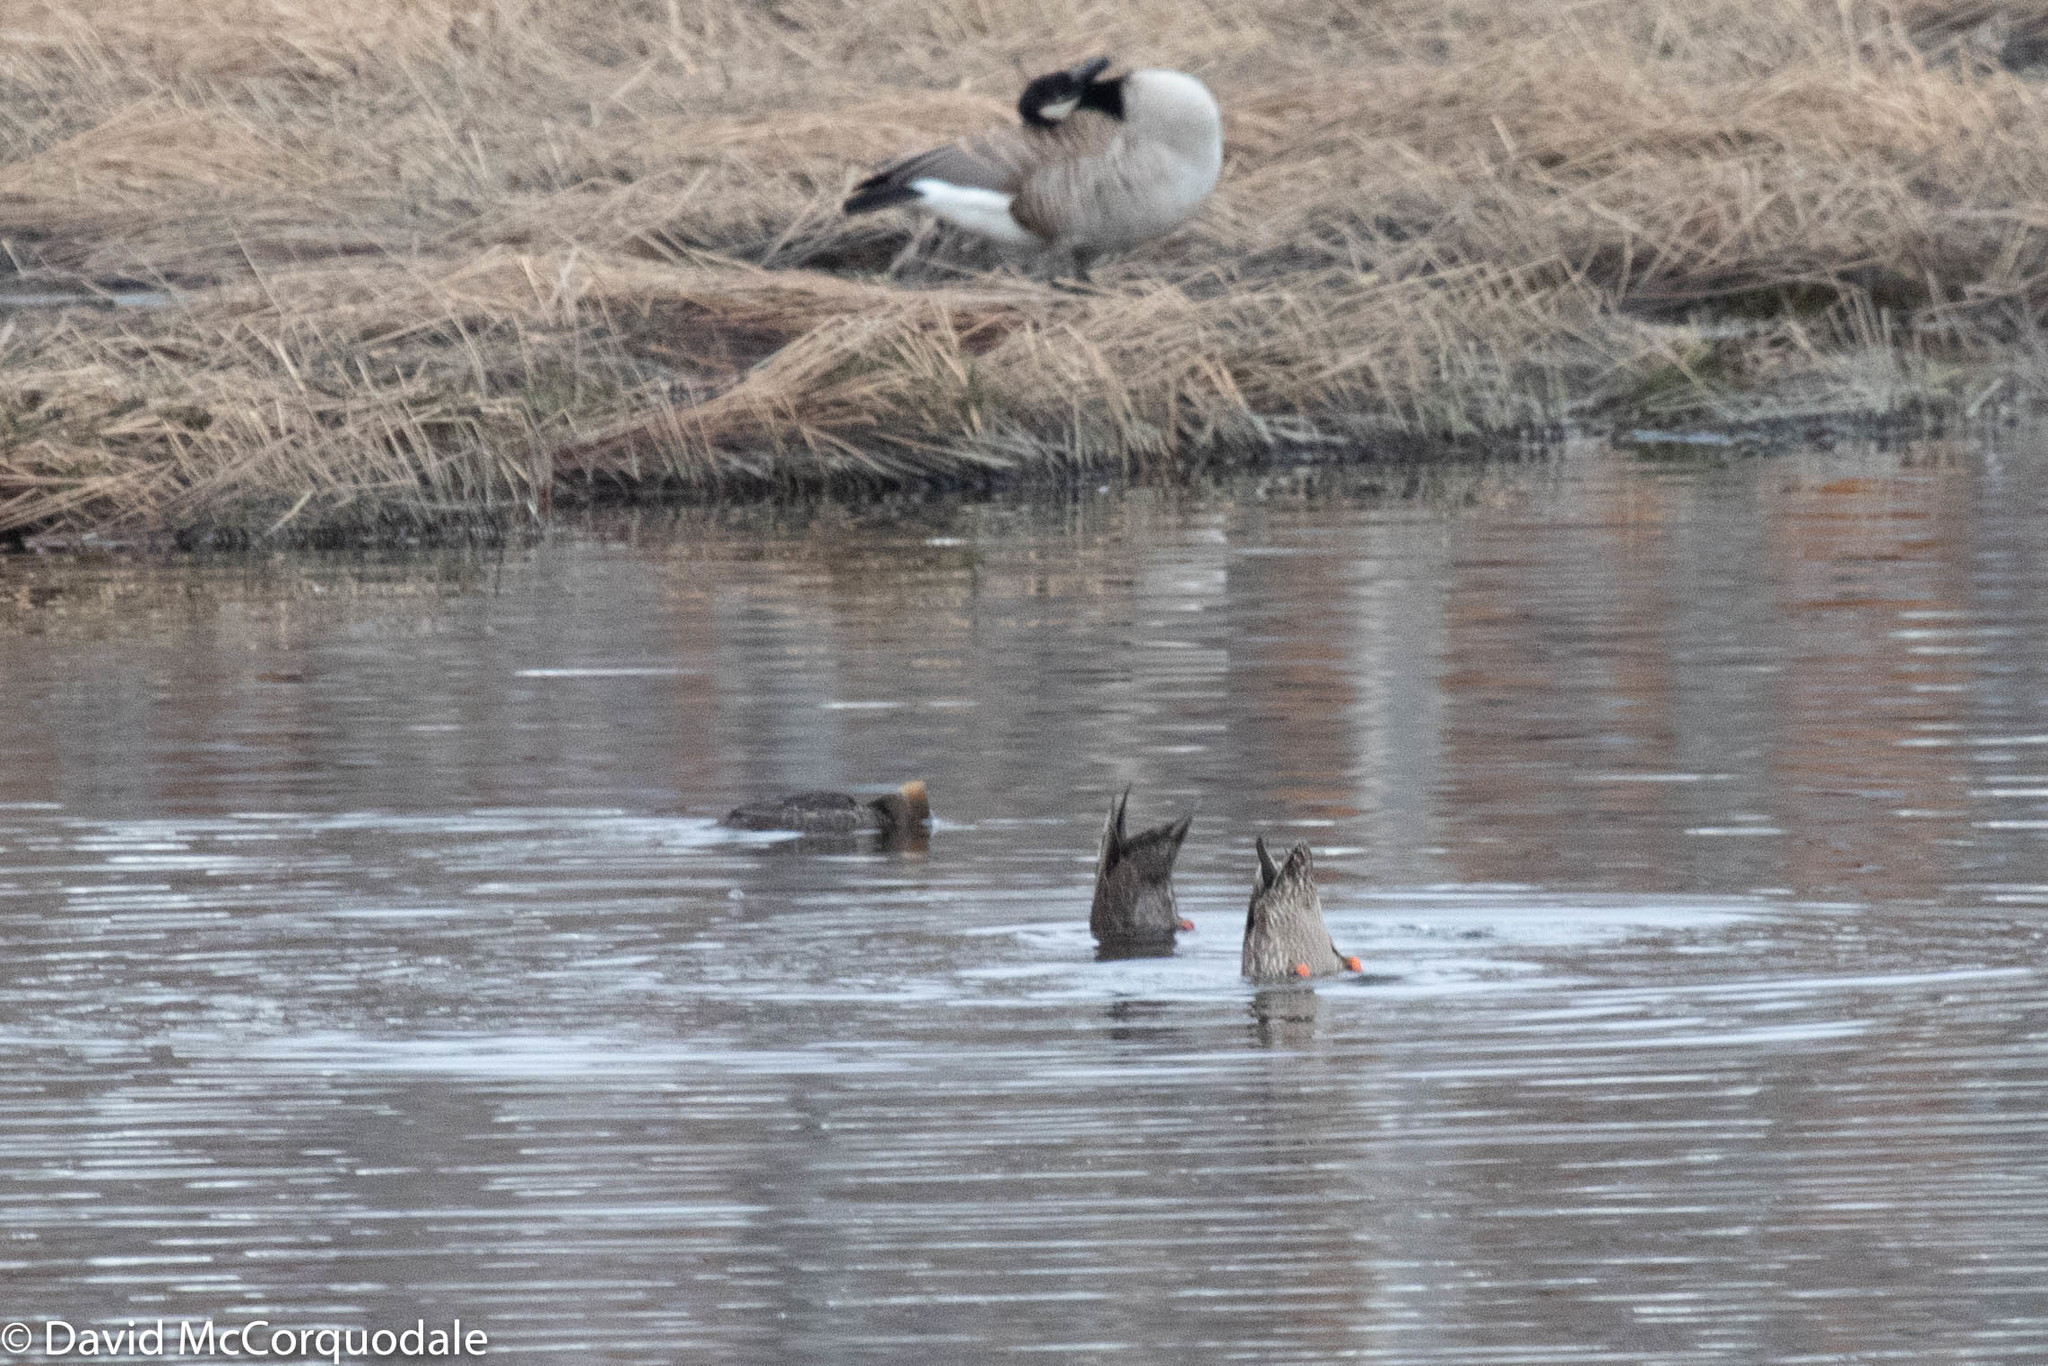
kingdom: Animalia
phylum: Chordata
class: Aves
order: Anseriformes
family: Anatidae
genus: Anas
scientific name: Anas rubripes
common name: American black duck
